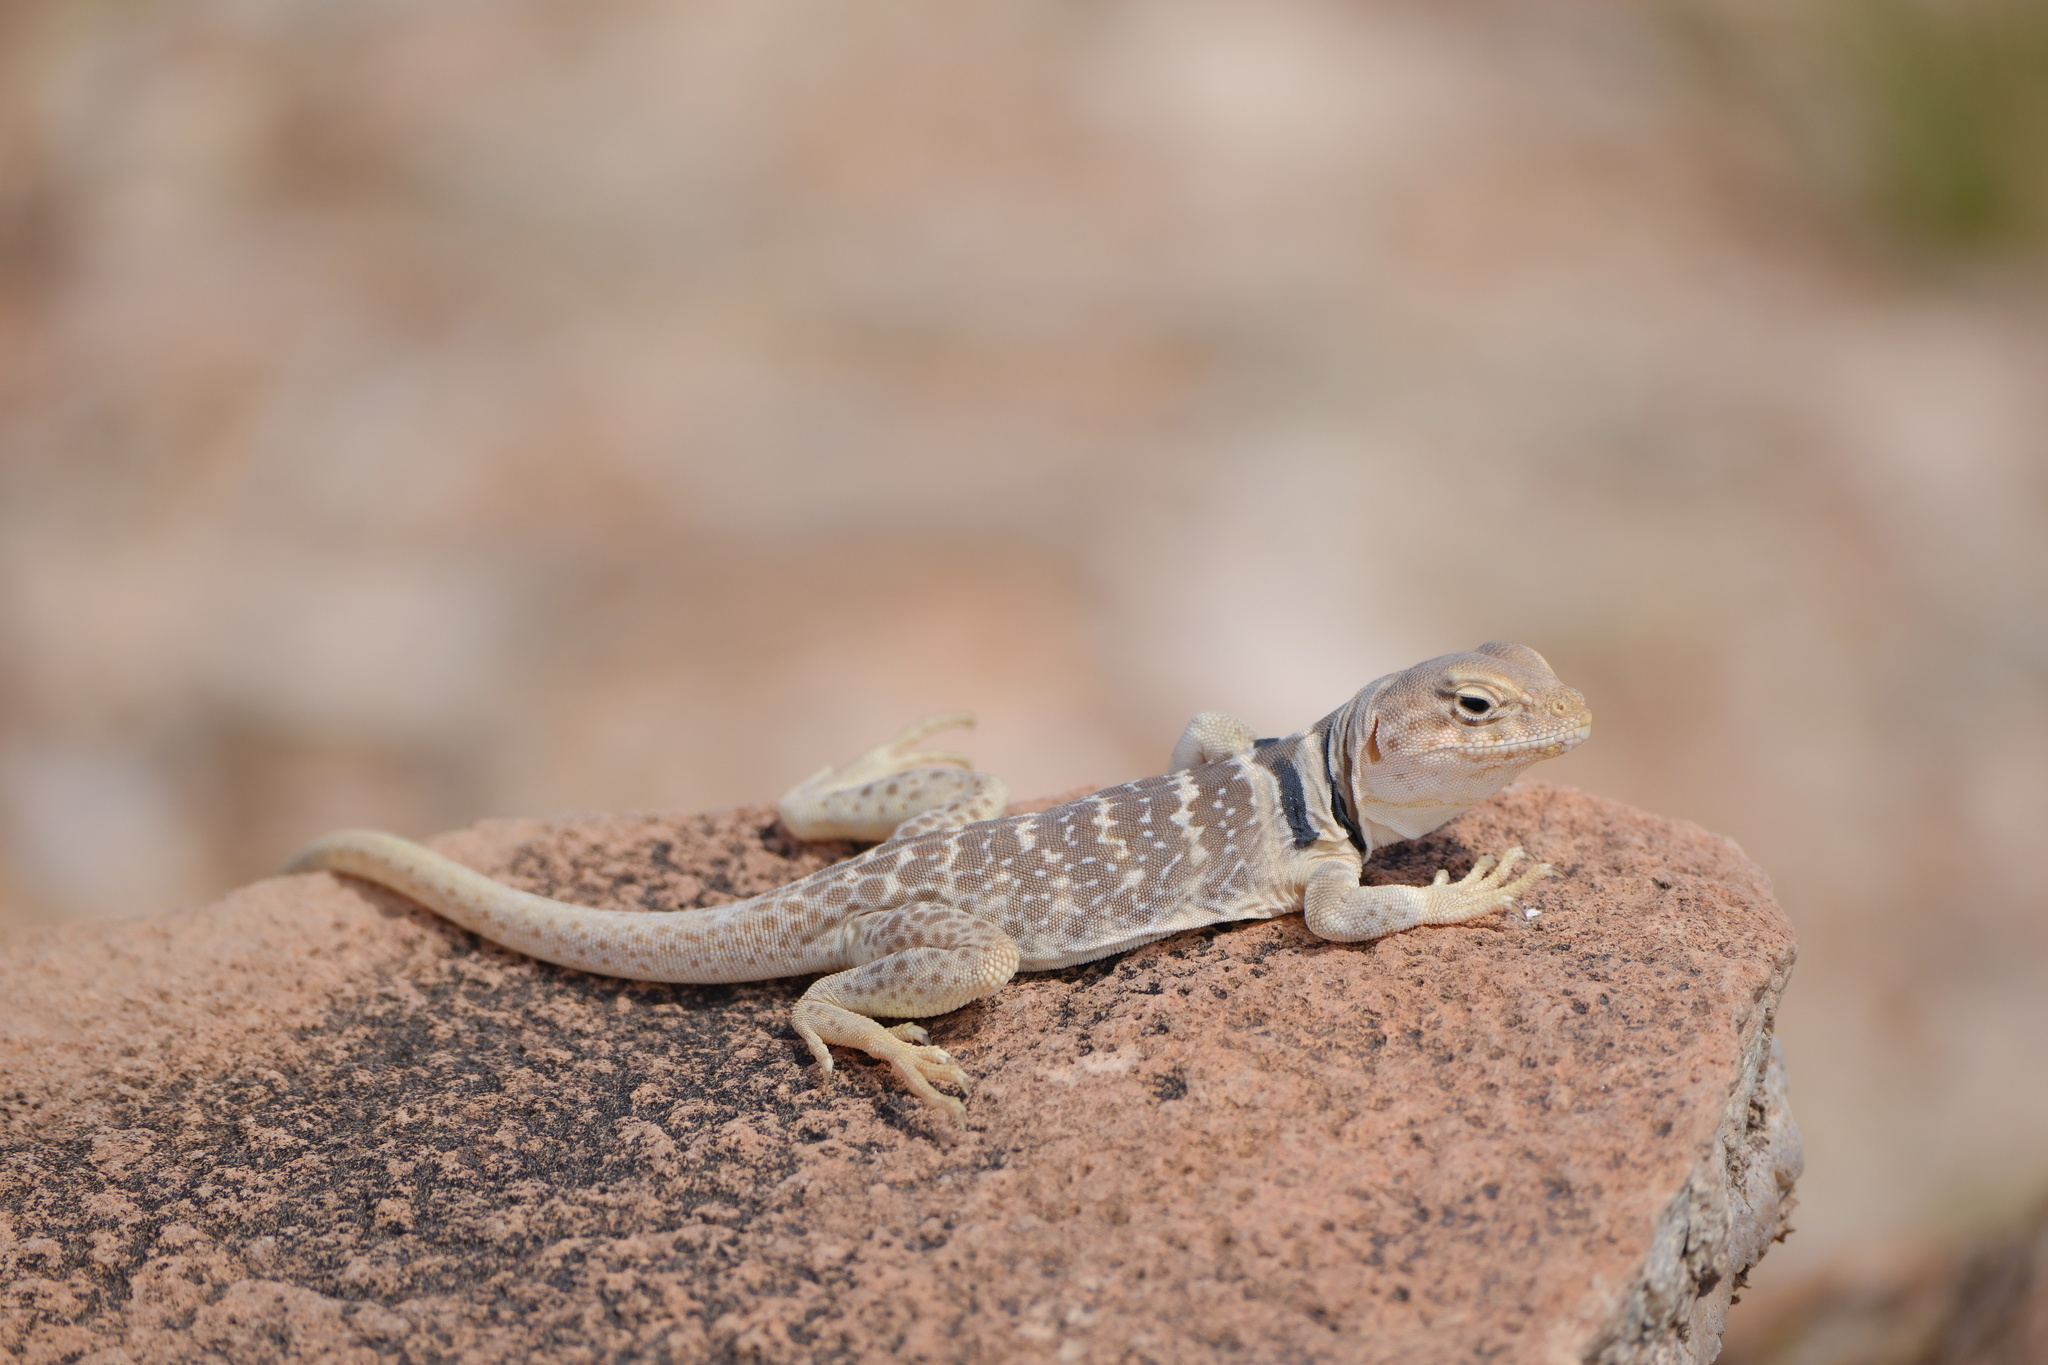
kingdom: Animalia
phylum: Chordata
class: Squamata
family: Crotaphytidae
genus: Crotaphytus
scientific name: Crotaphytus bicinctores
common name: Mojave black-collared lizard
